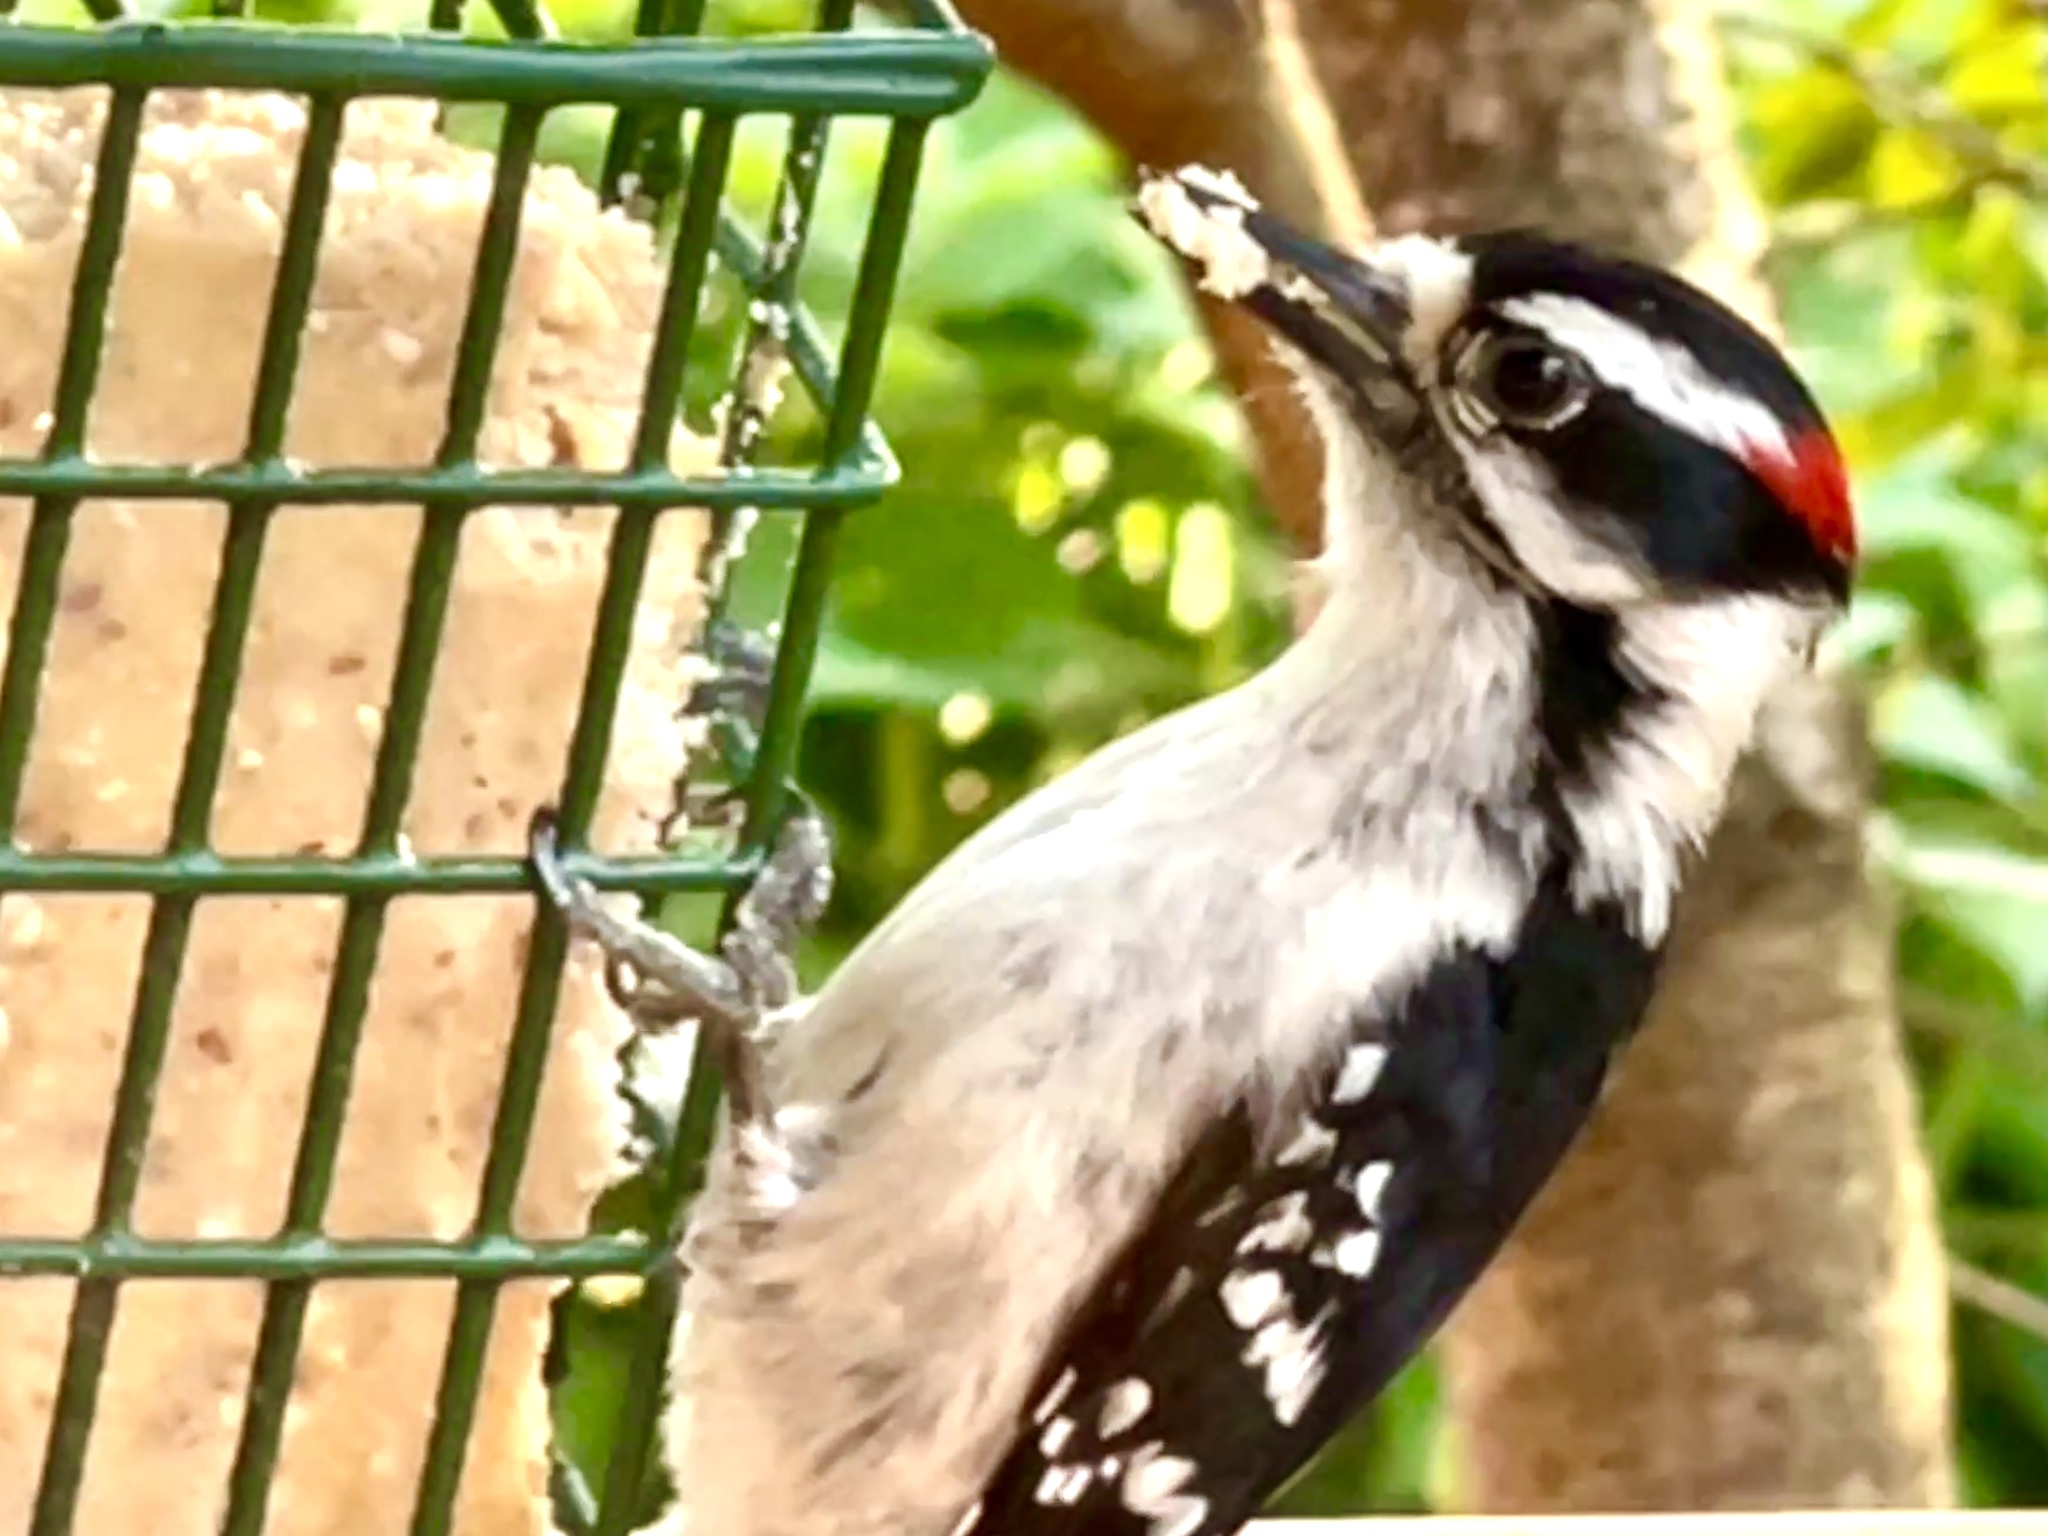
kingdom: Animalia
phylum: Chordata
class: Aves
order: Piciformes
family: Picidae
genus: Dryobates
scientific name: Dryobates pubescens
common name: Downy woodpecker
